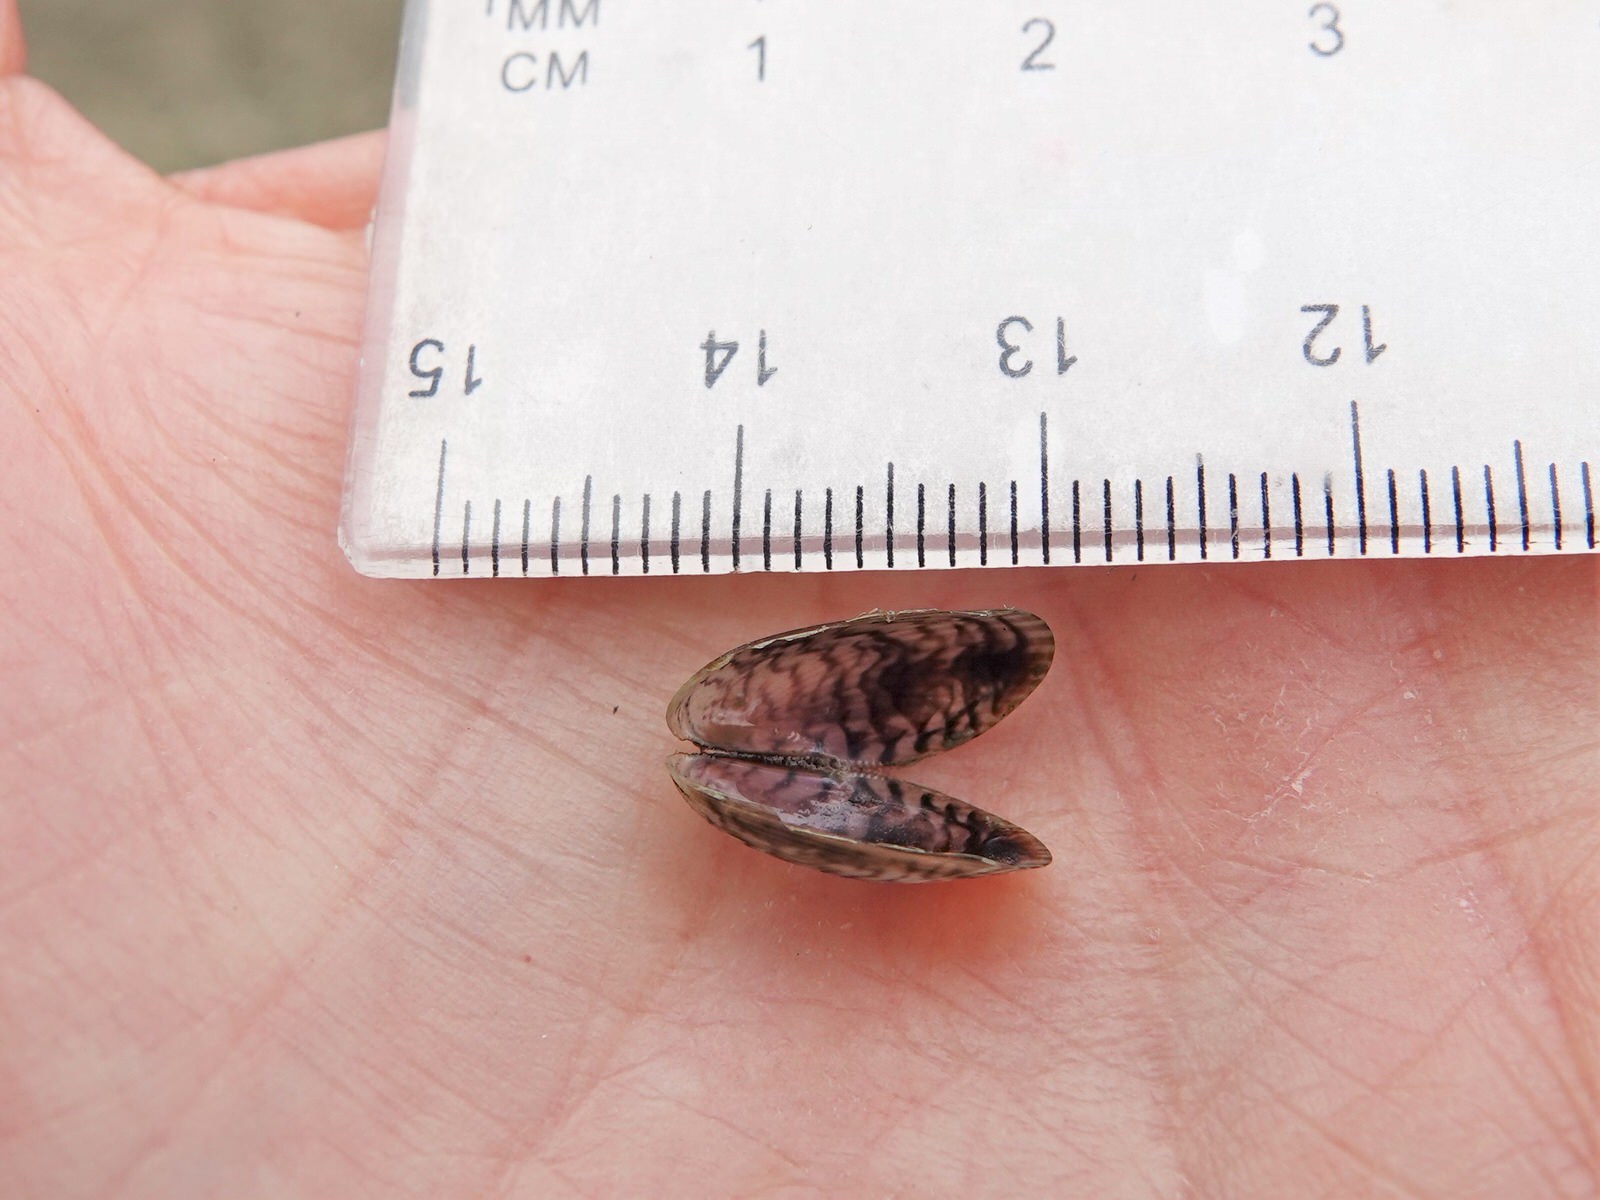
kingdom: Animalia
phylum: Mollusca
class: Bivalvia
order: Mytilida
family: Mytilidae
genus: Arcuatula
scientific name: Arcuatula senhousia
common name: Asian mussel
